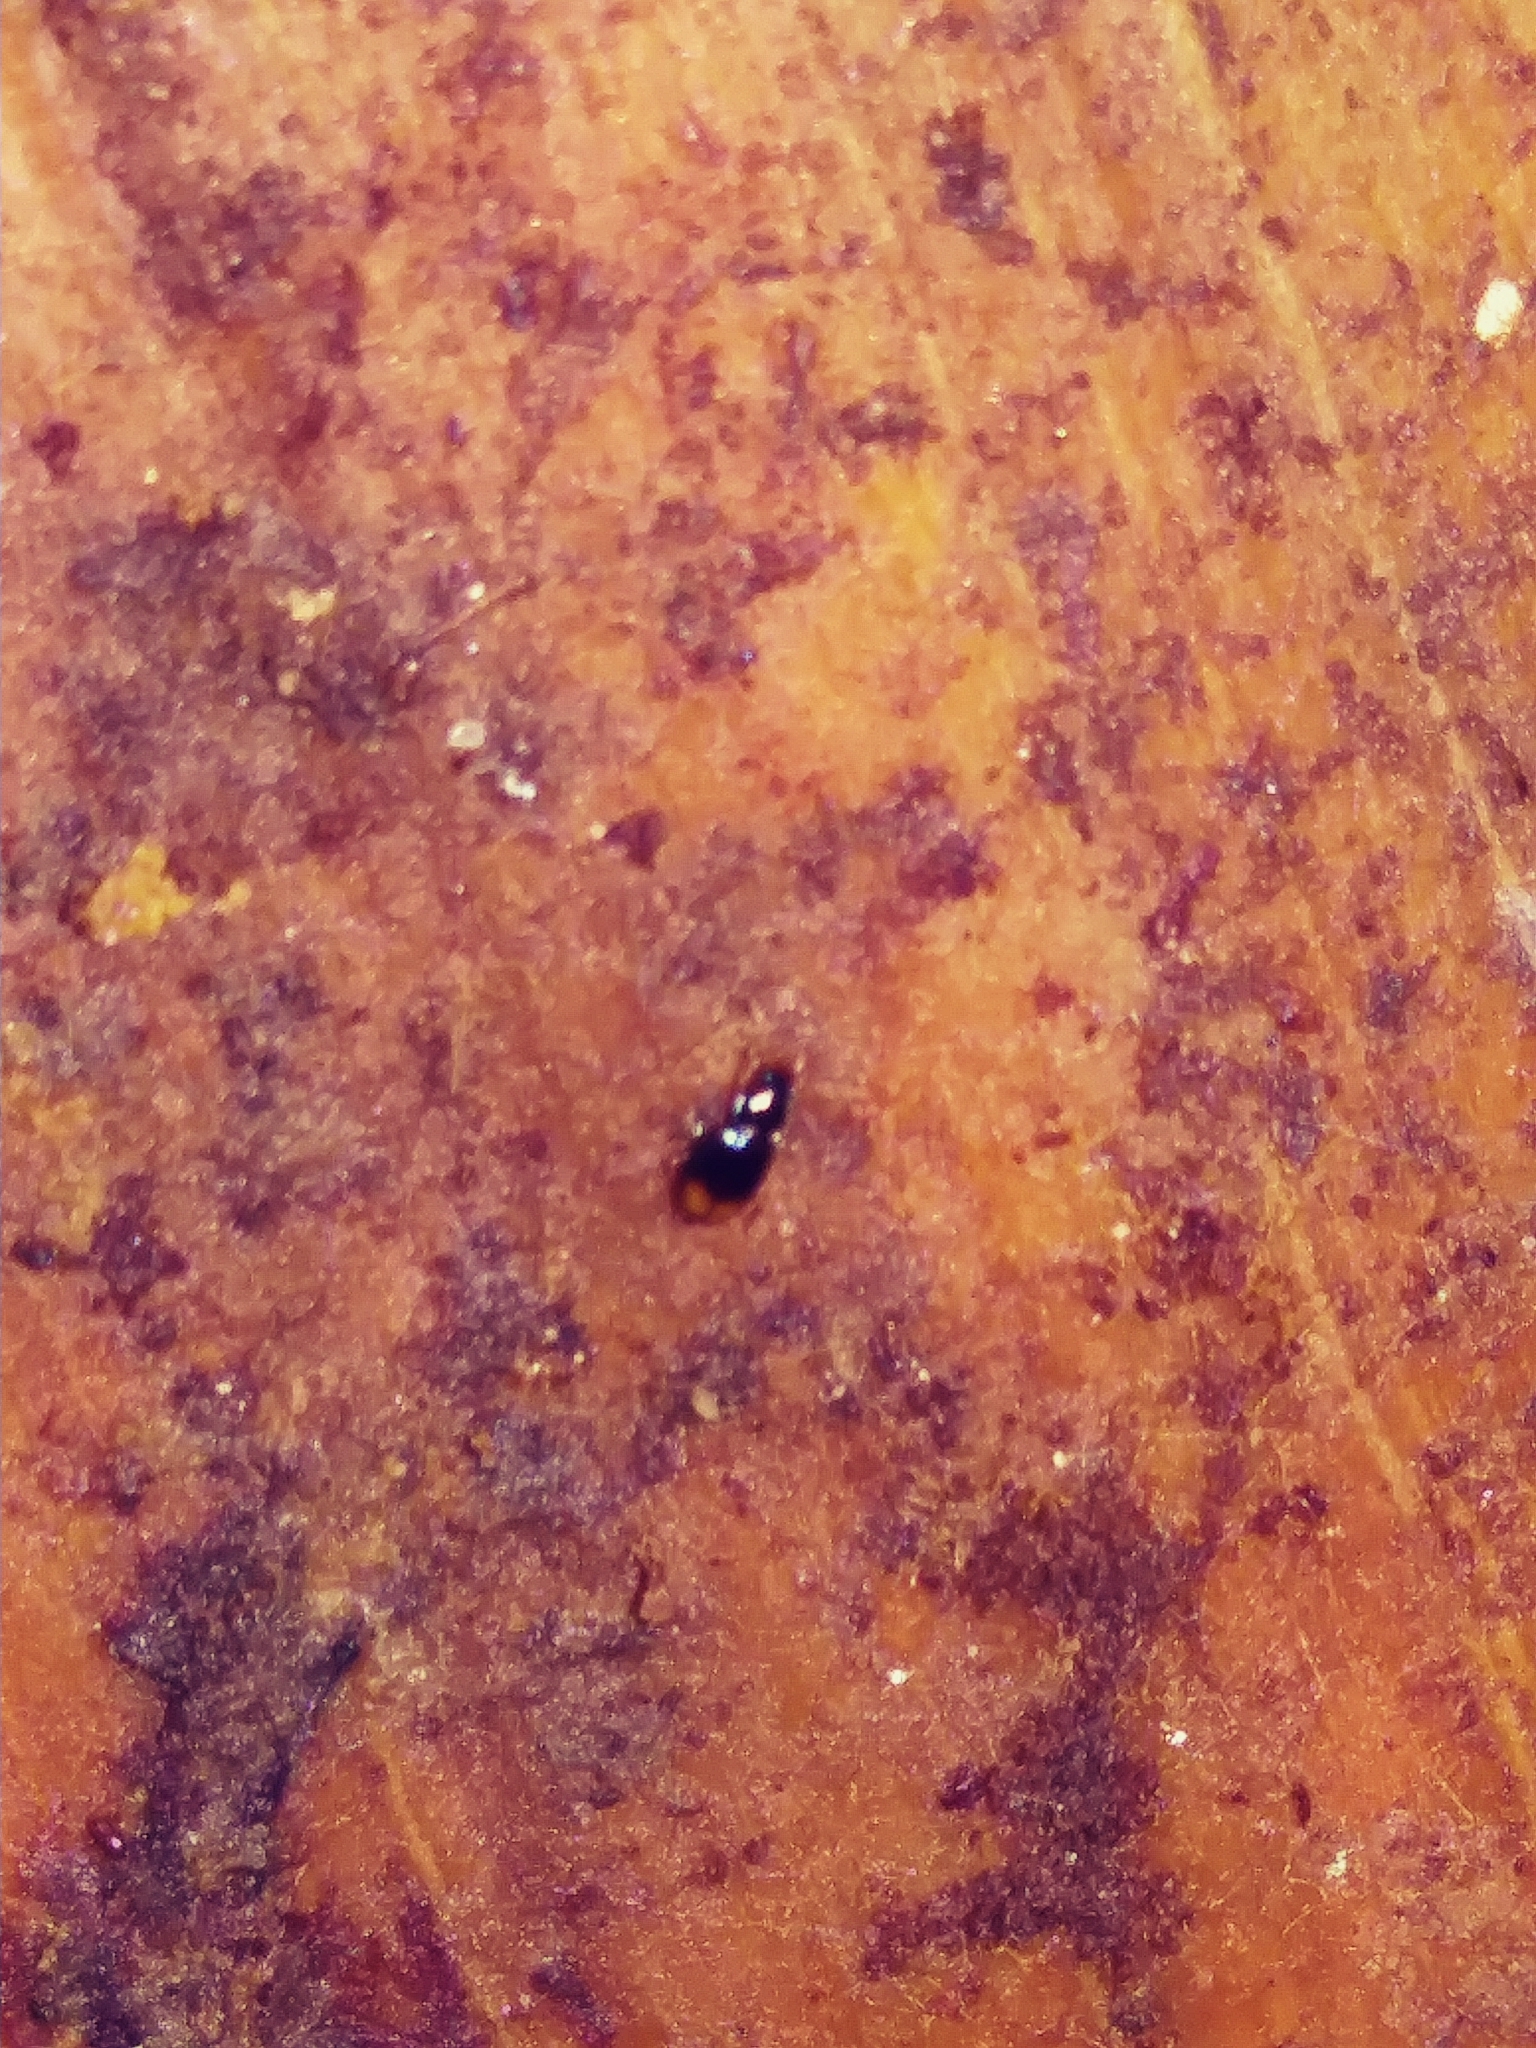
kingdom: Animalia
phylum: Arthropoda
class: Insecta
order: Coleoptera
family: Carabidae
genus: Mioptachys
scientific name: Mioptachys flavicauda
